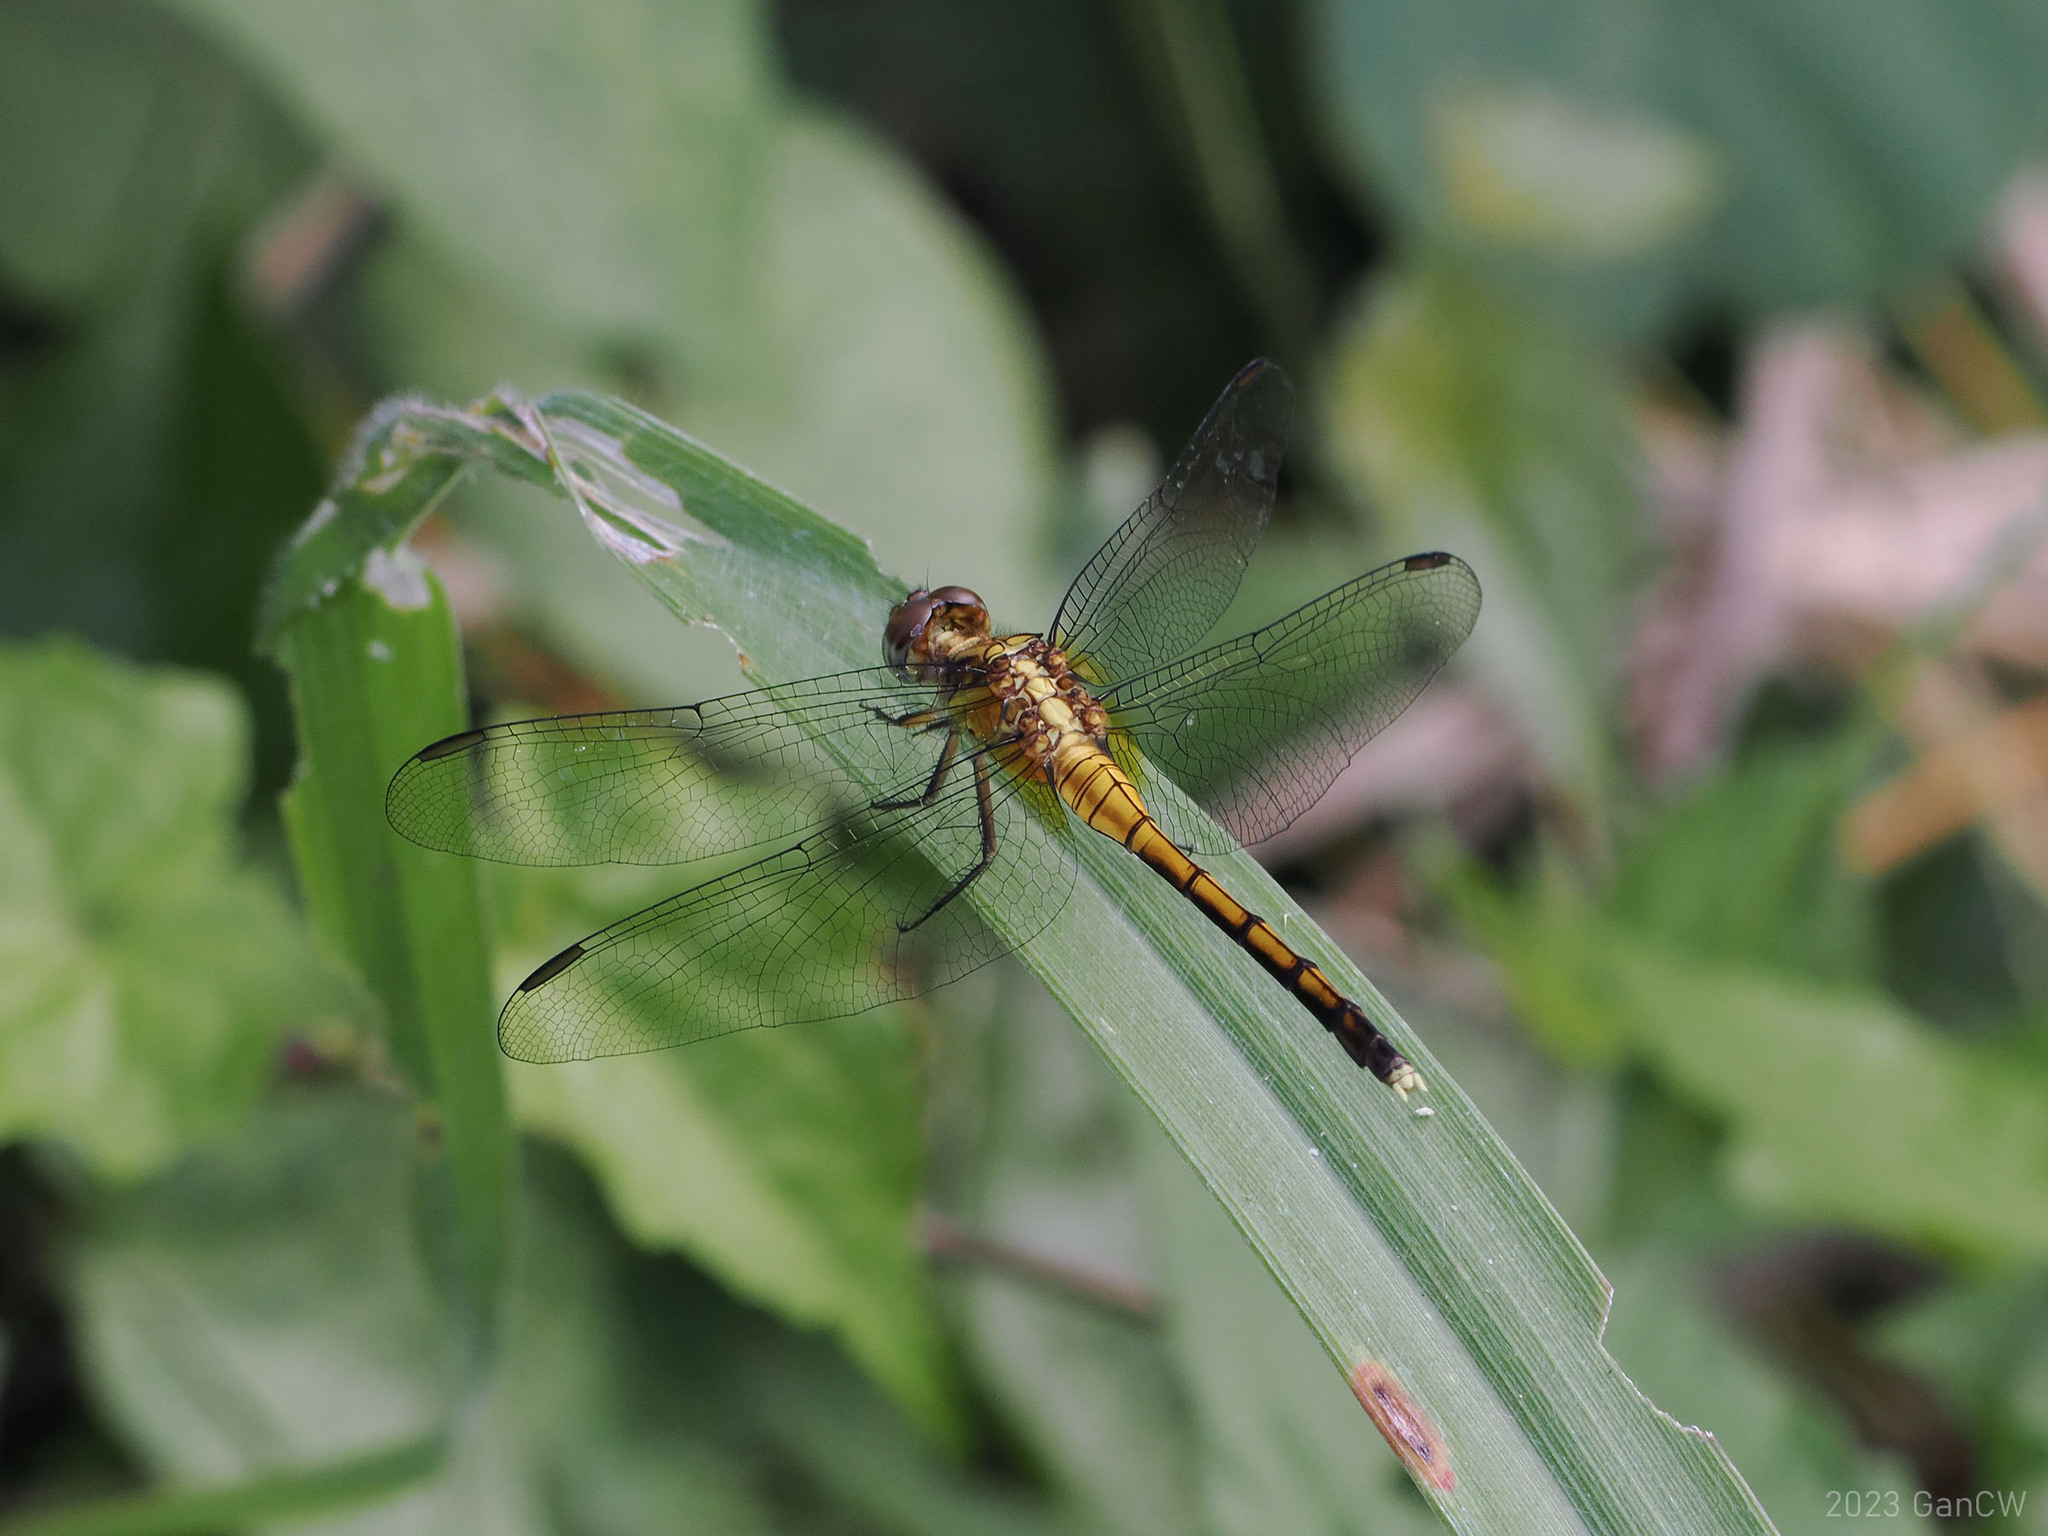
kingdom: Animalia
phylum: Arthropoda
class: Insecta
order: Odonata
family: Libellulidae
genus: Orthetrum
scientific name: Orthetrum luzonicum
